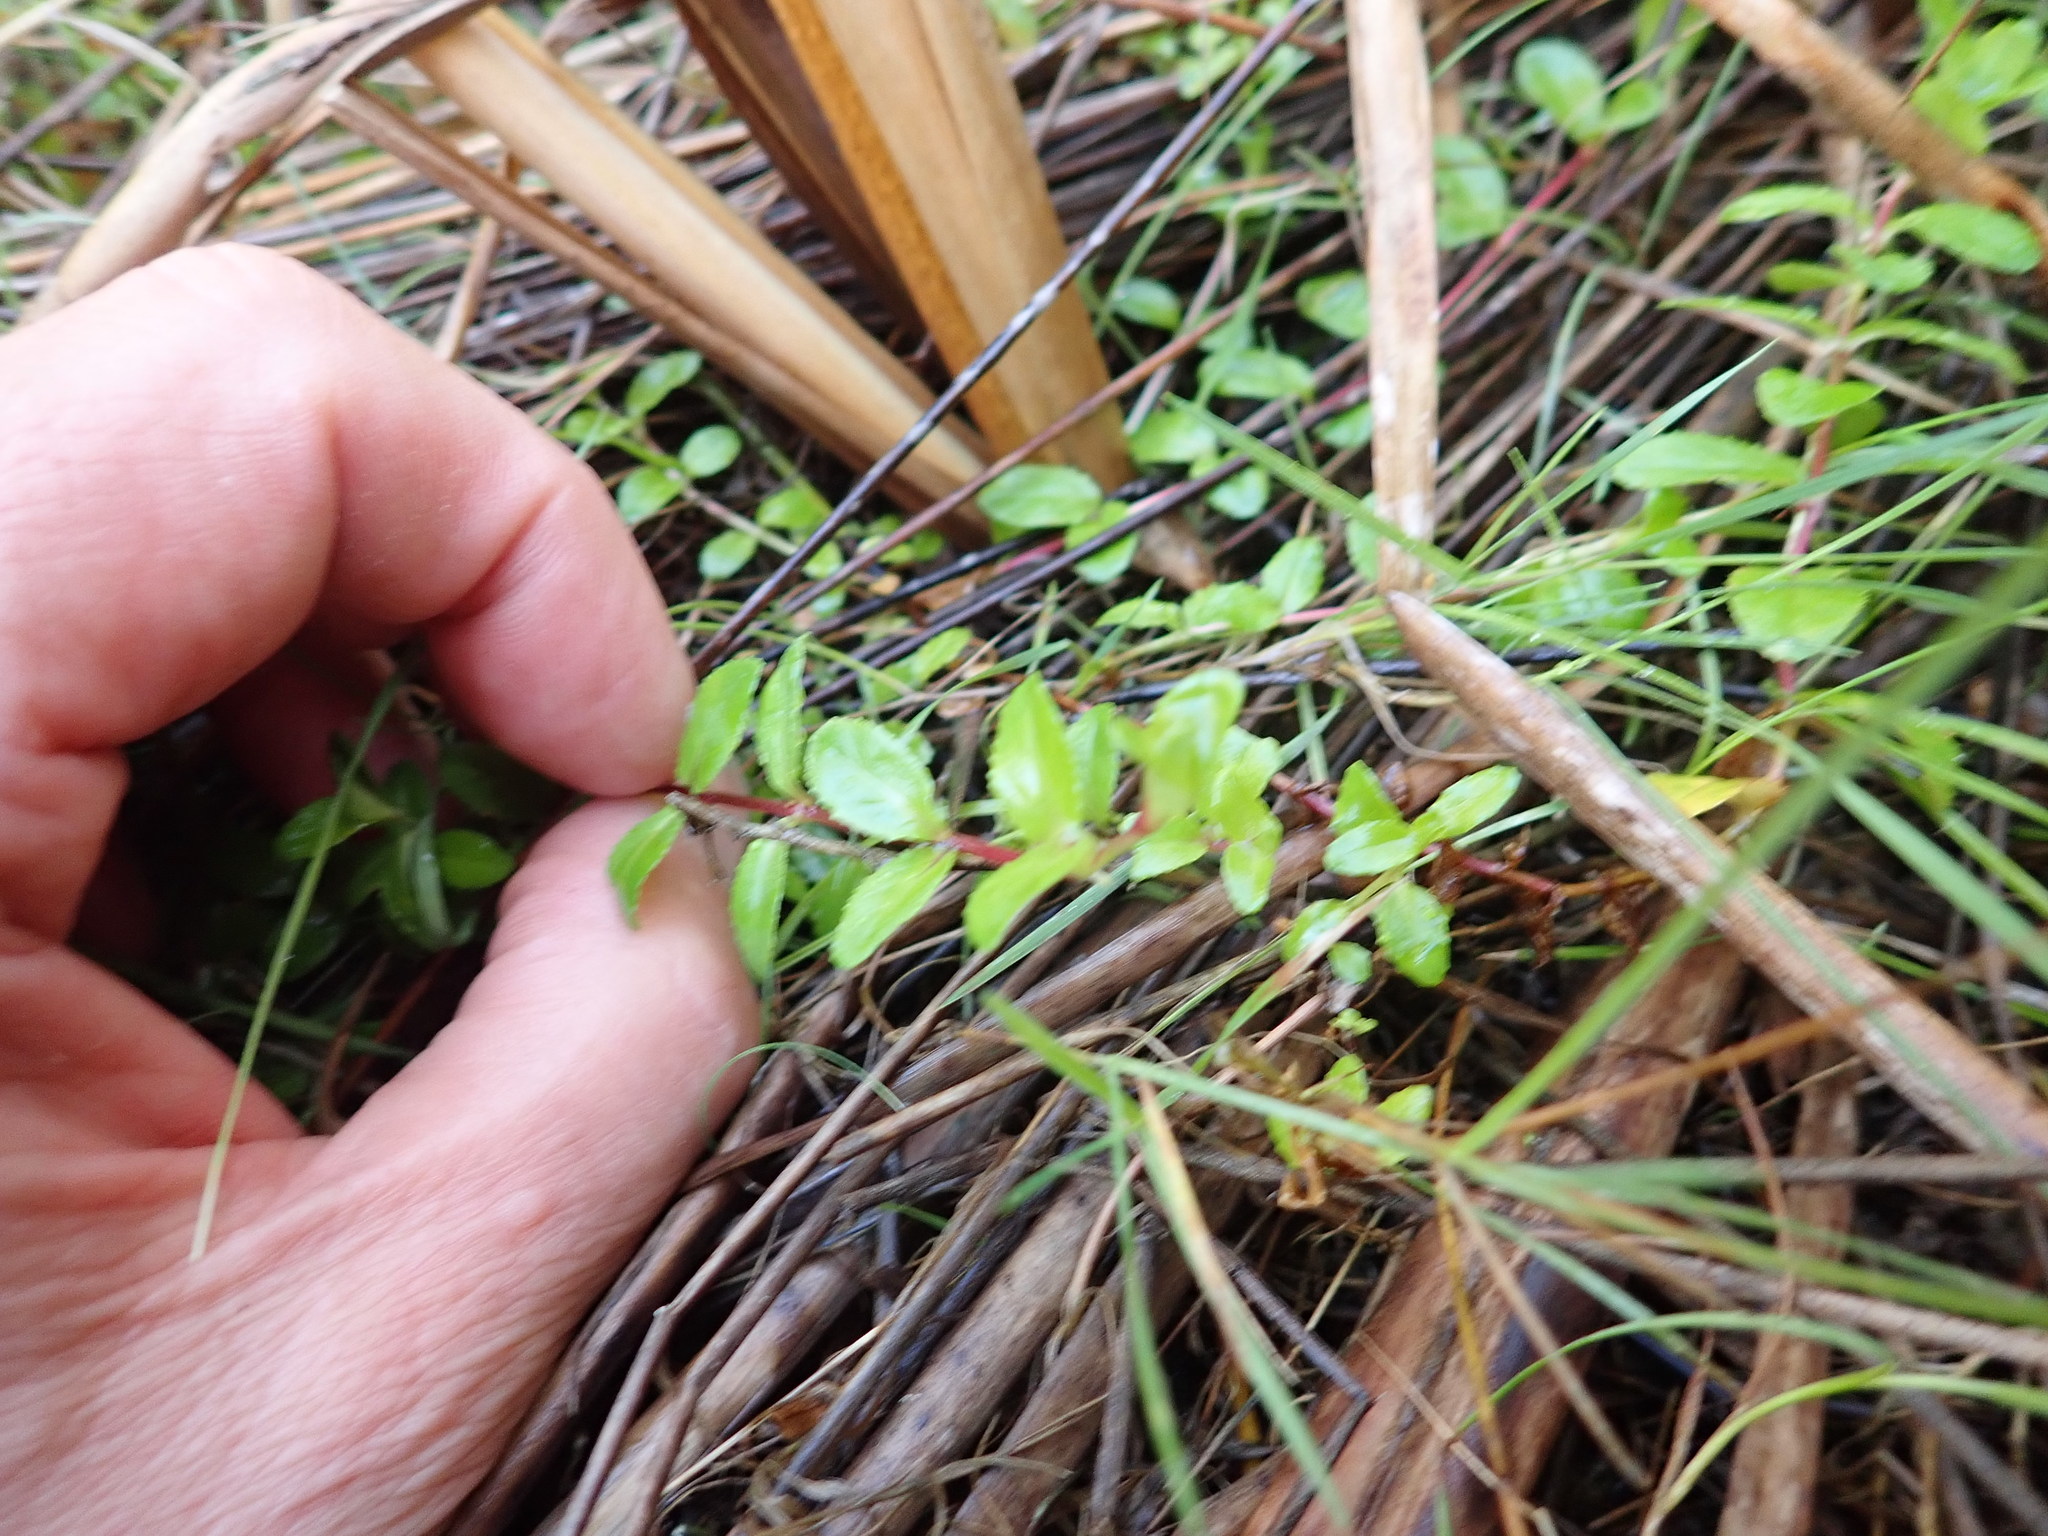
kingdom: Plantae
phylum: Tracheophyta
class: Magnoliopsida
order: Myrtales
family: Onagraceae
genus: Epilobium
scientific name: Epilobium billardiereanum
